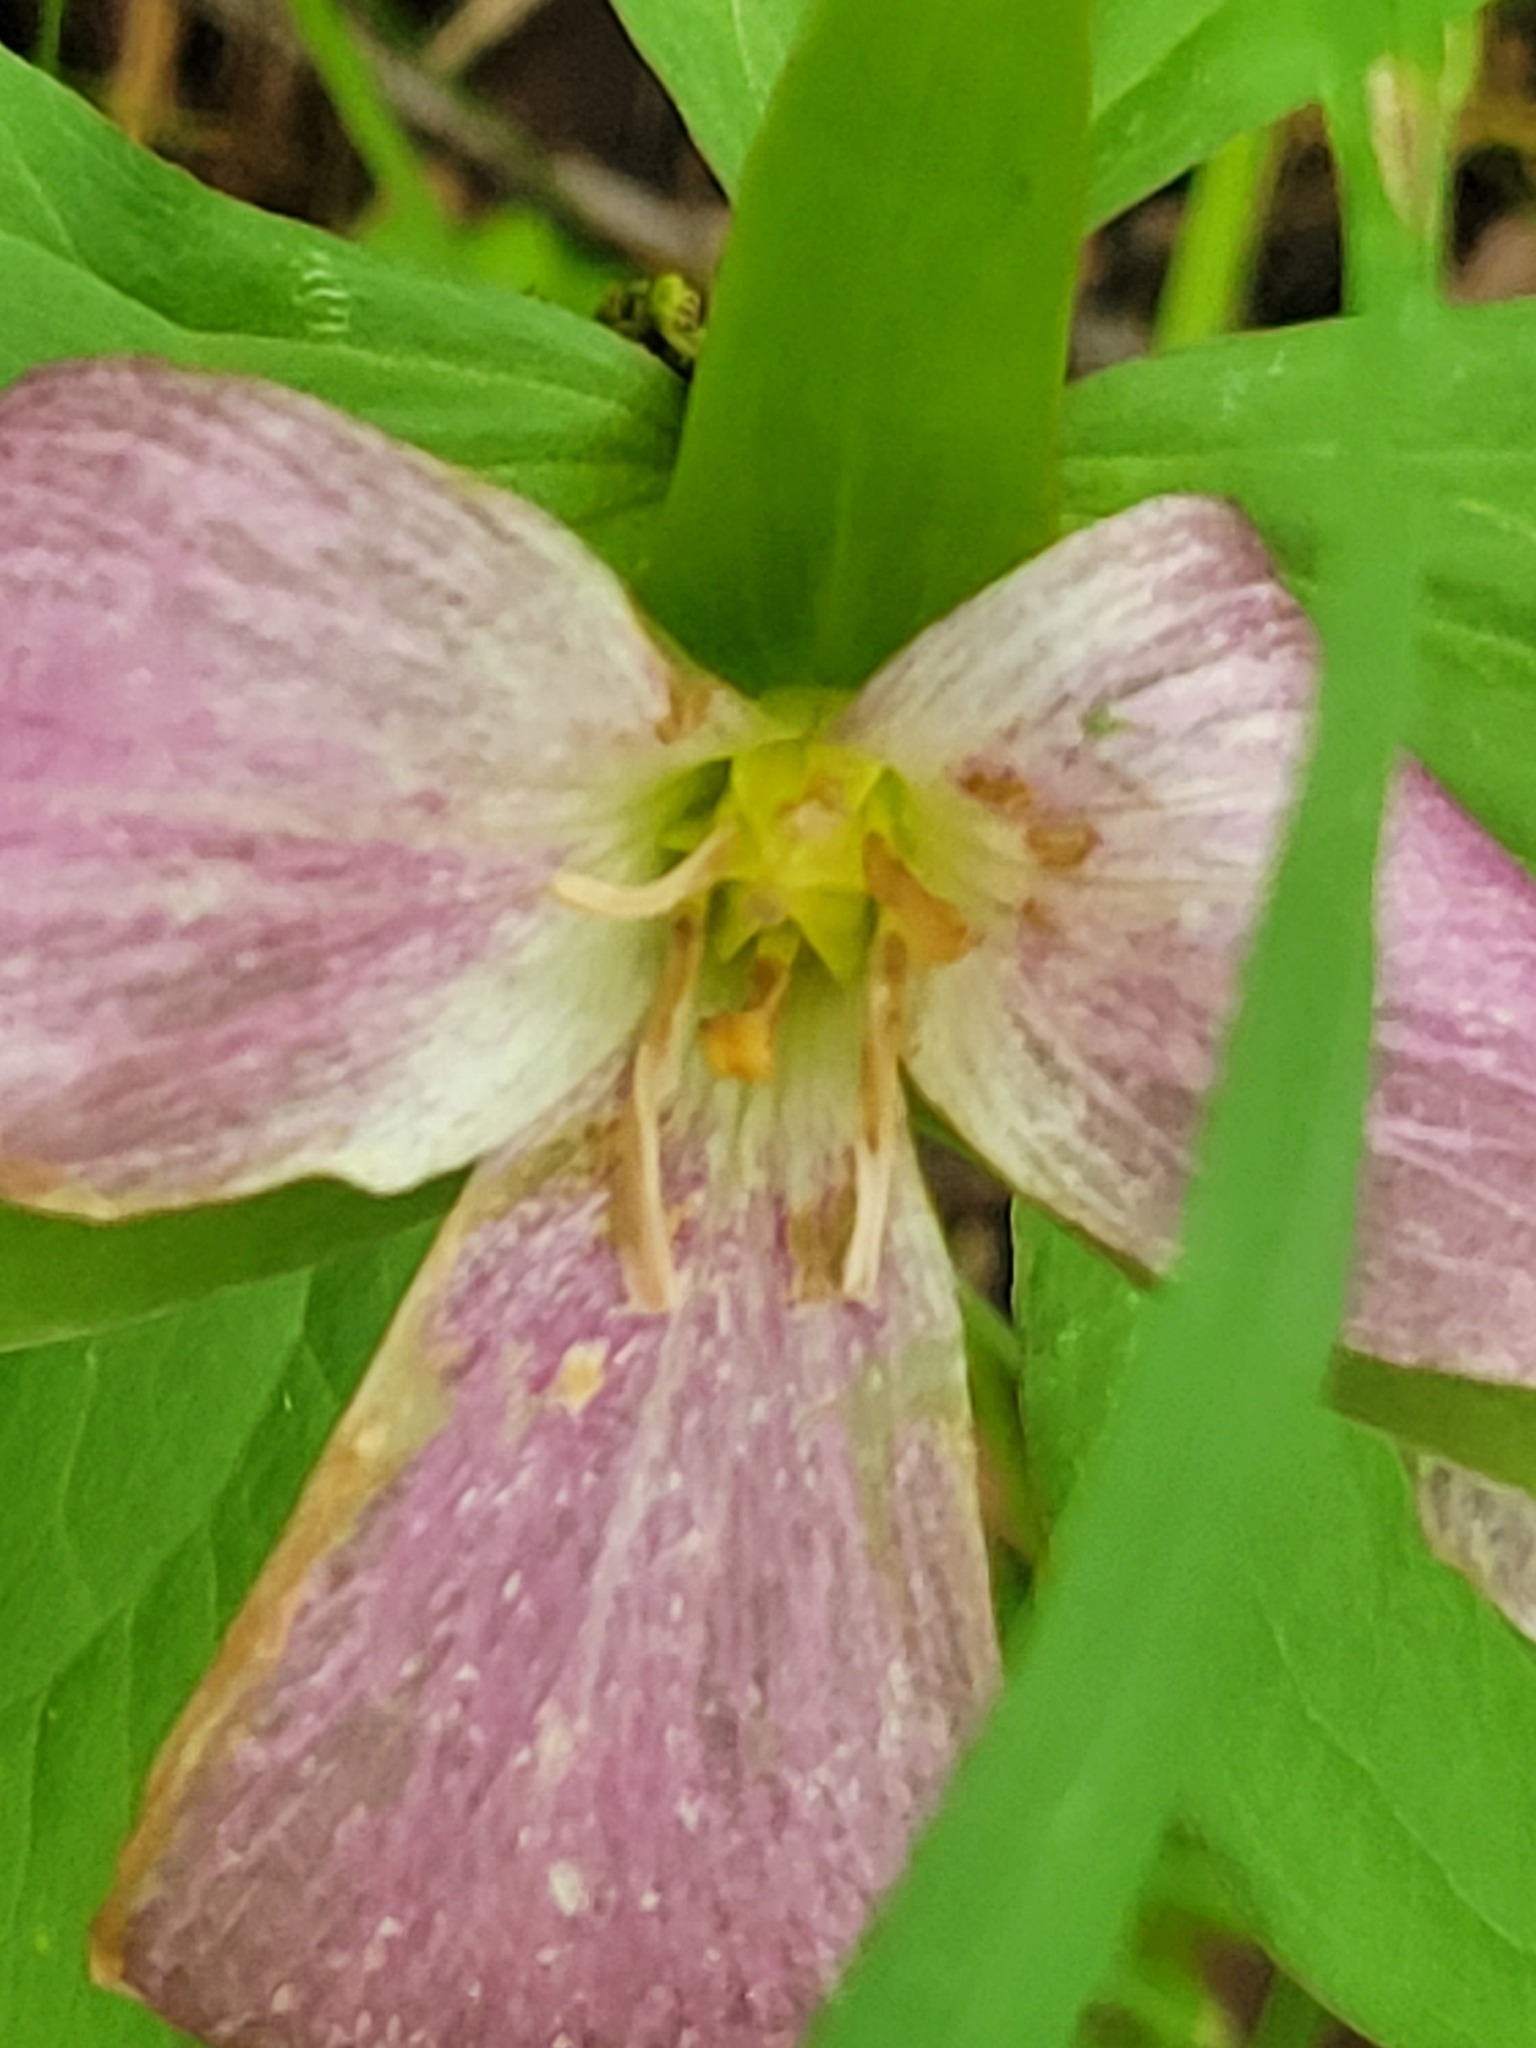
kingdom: Plantae
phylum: Tracheophyta
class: Liliopsida
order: Liliales
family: Melanthiaceae
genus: Trillium
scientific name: Trillium grandiflorum
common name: Great white trillium
